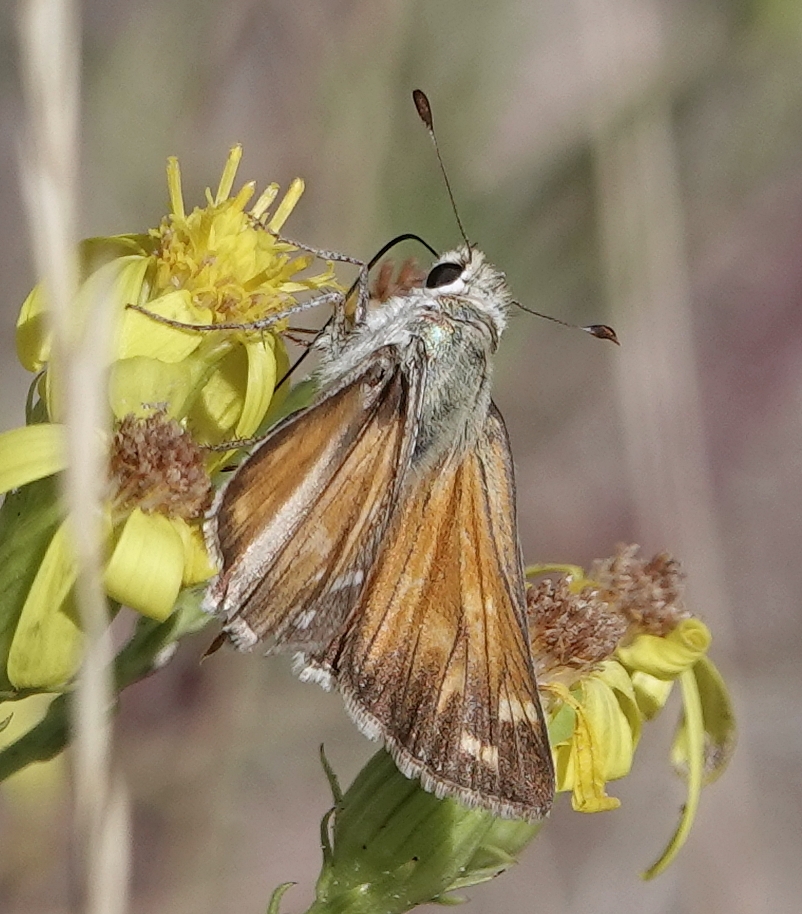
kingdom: Animalia
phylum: Arthropoda
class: Insecta
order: Lepidoptera
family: Hesperiidae
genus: Hesperia
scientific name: Hesperia comma
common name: Common branded skipper
